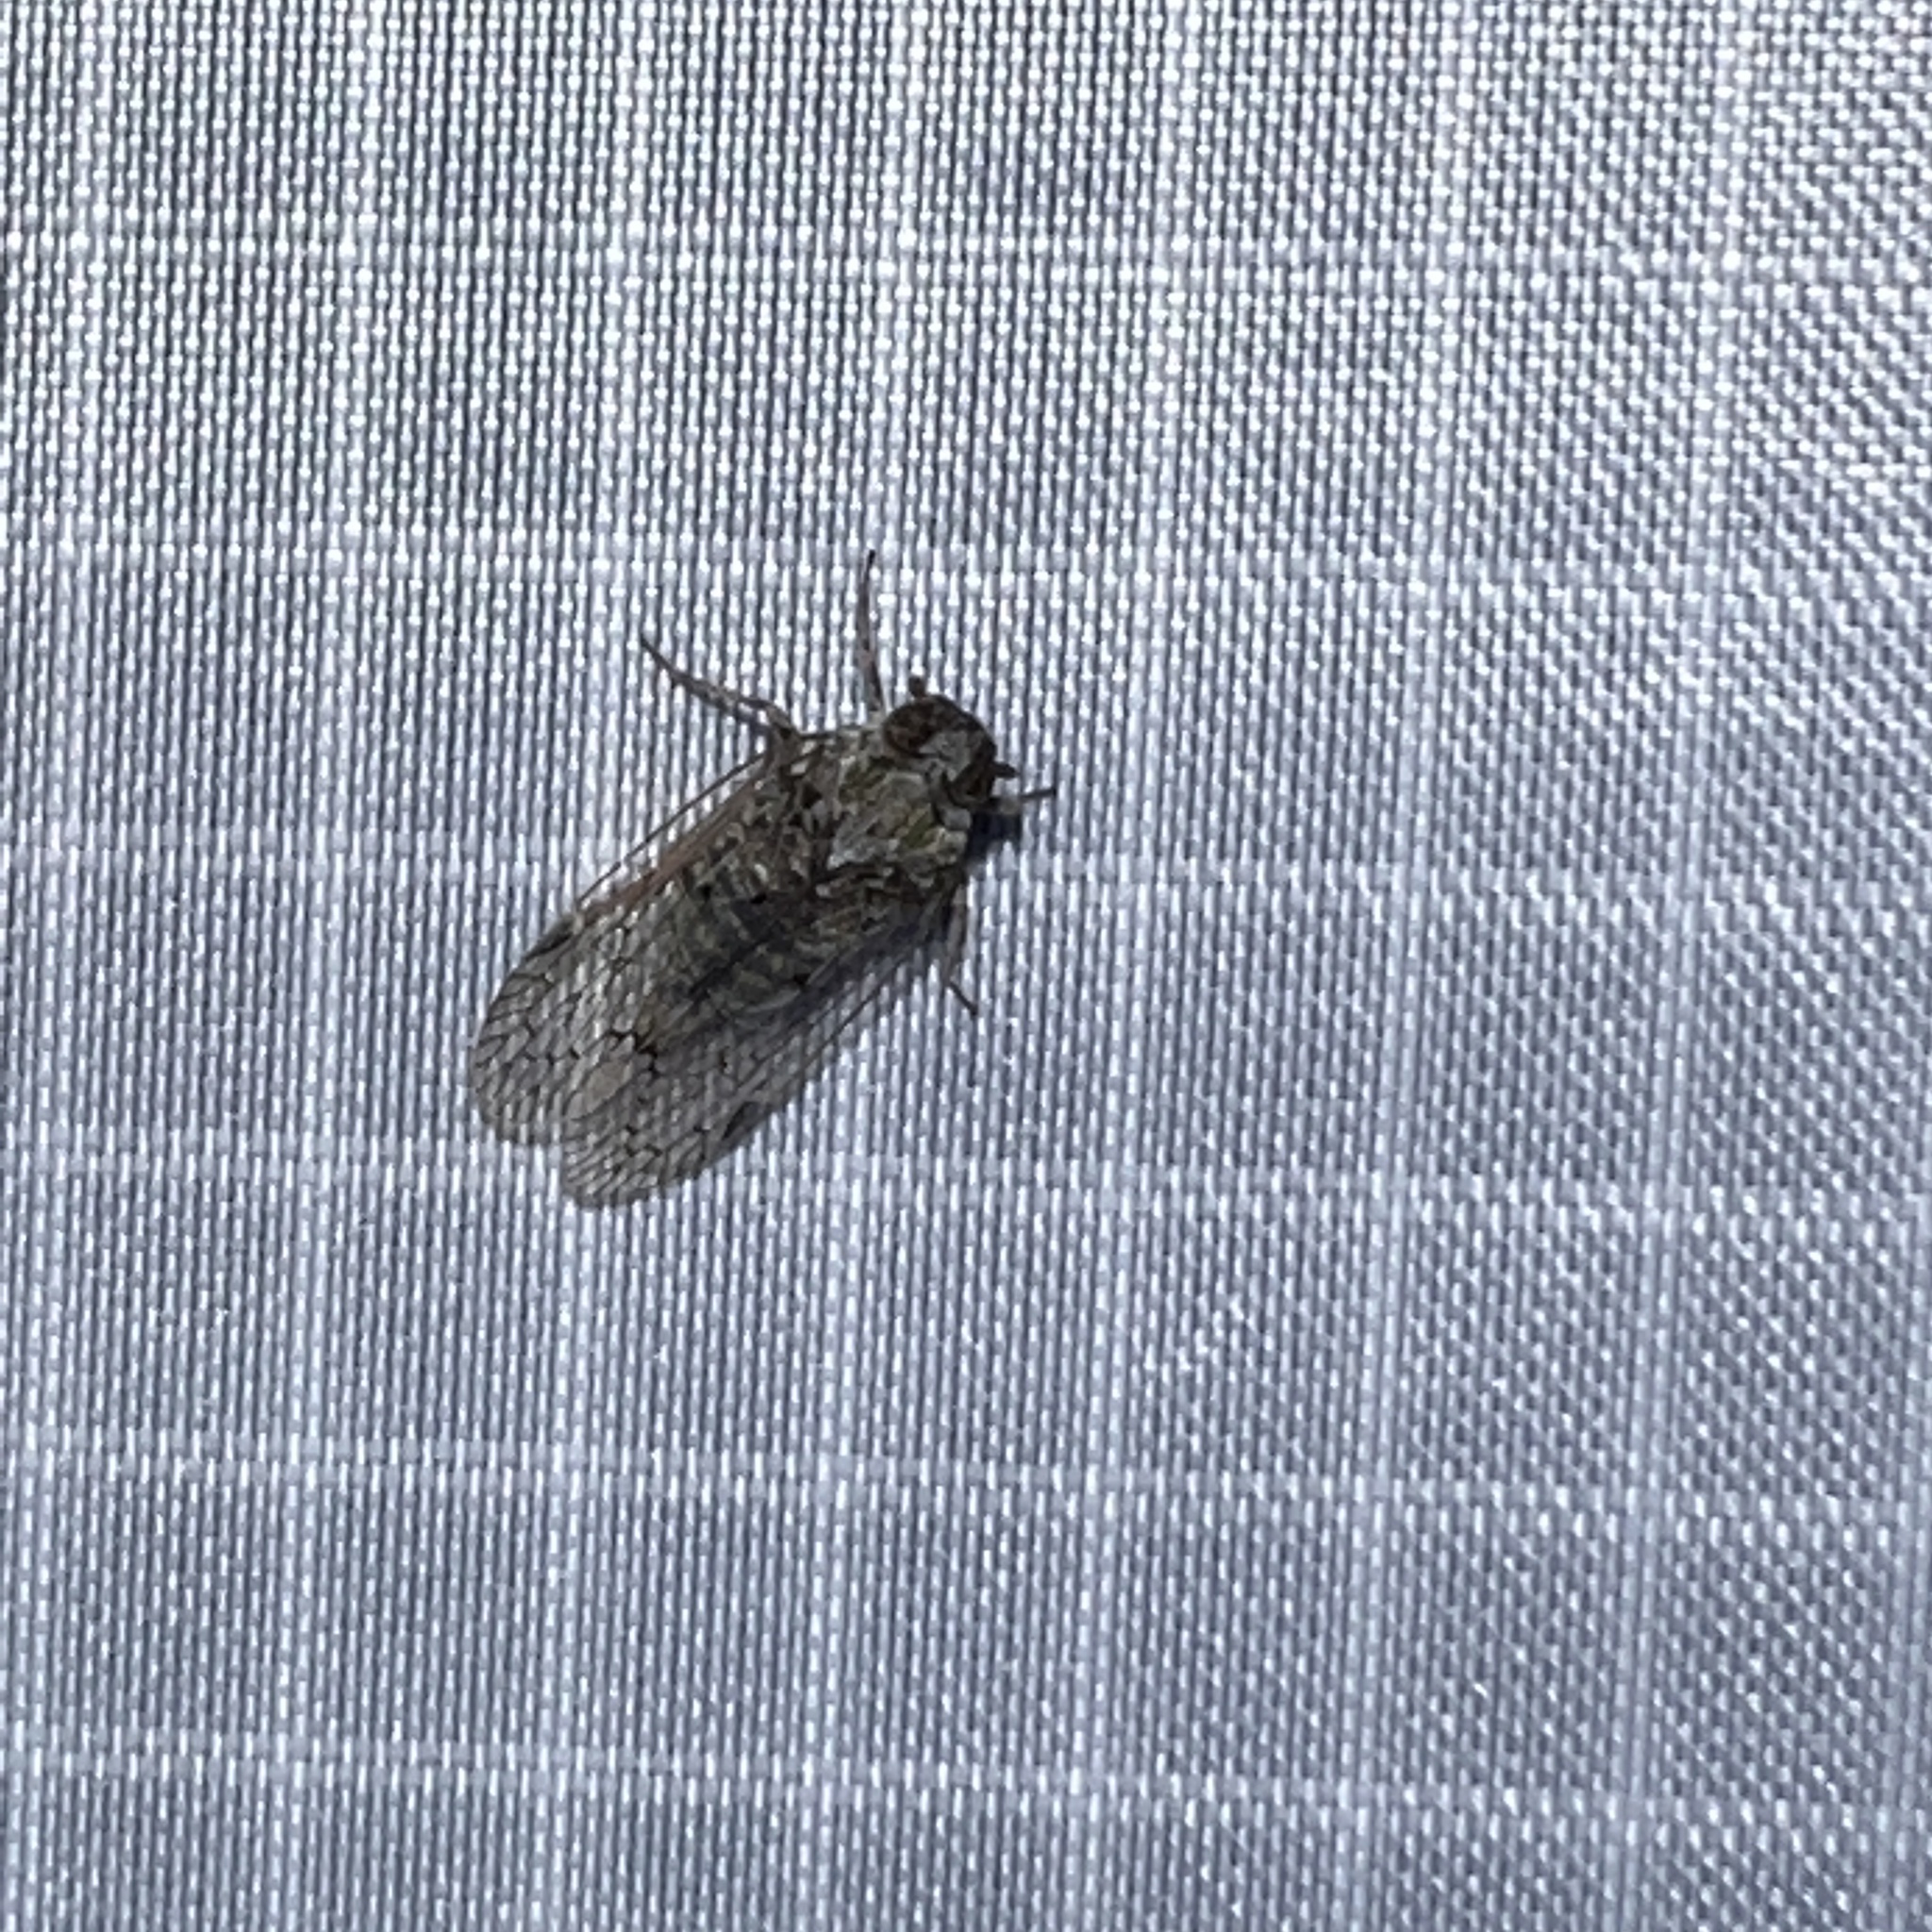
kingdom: Animalia
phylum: Arthropoda
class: Insecta
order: Hemiptera
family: Cixiidae
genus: Melanoliarus
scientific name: Melanoliarus aridus
